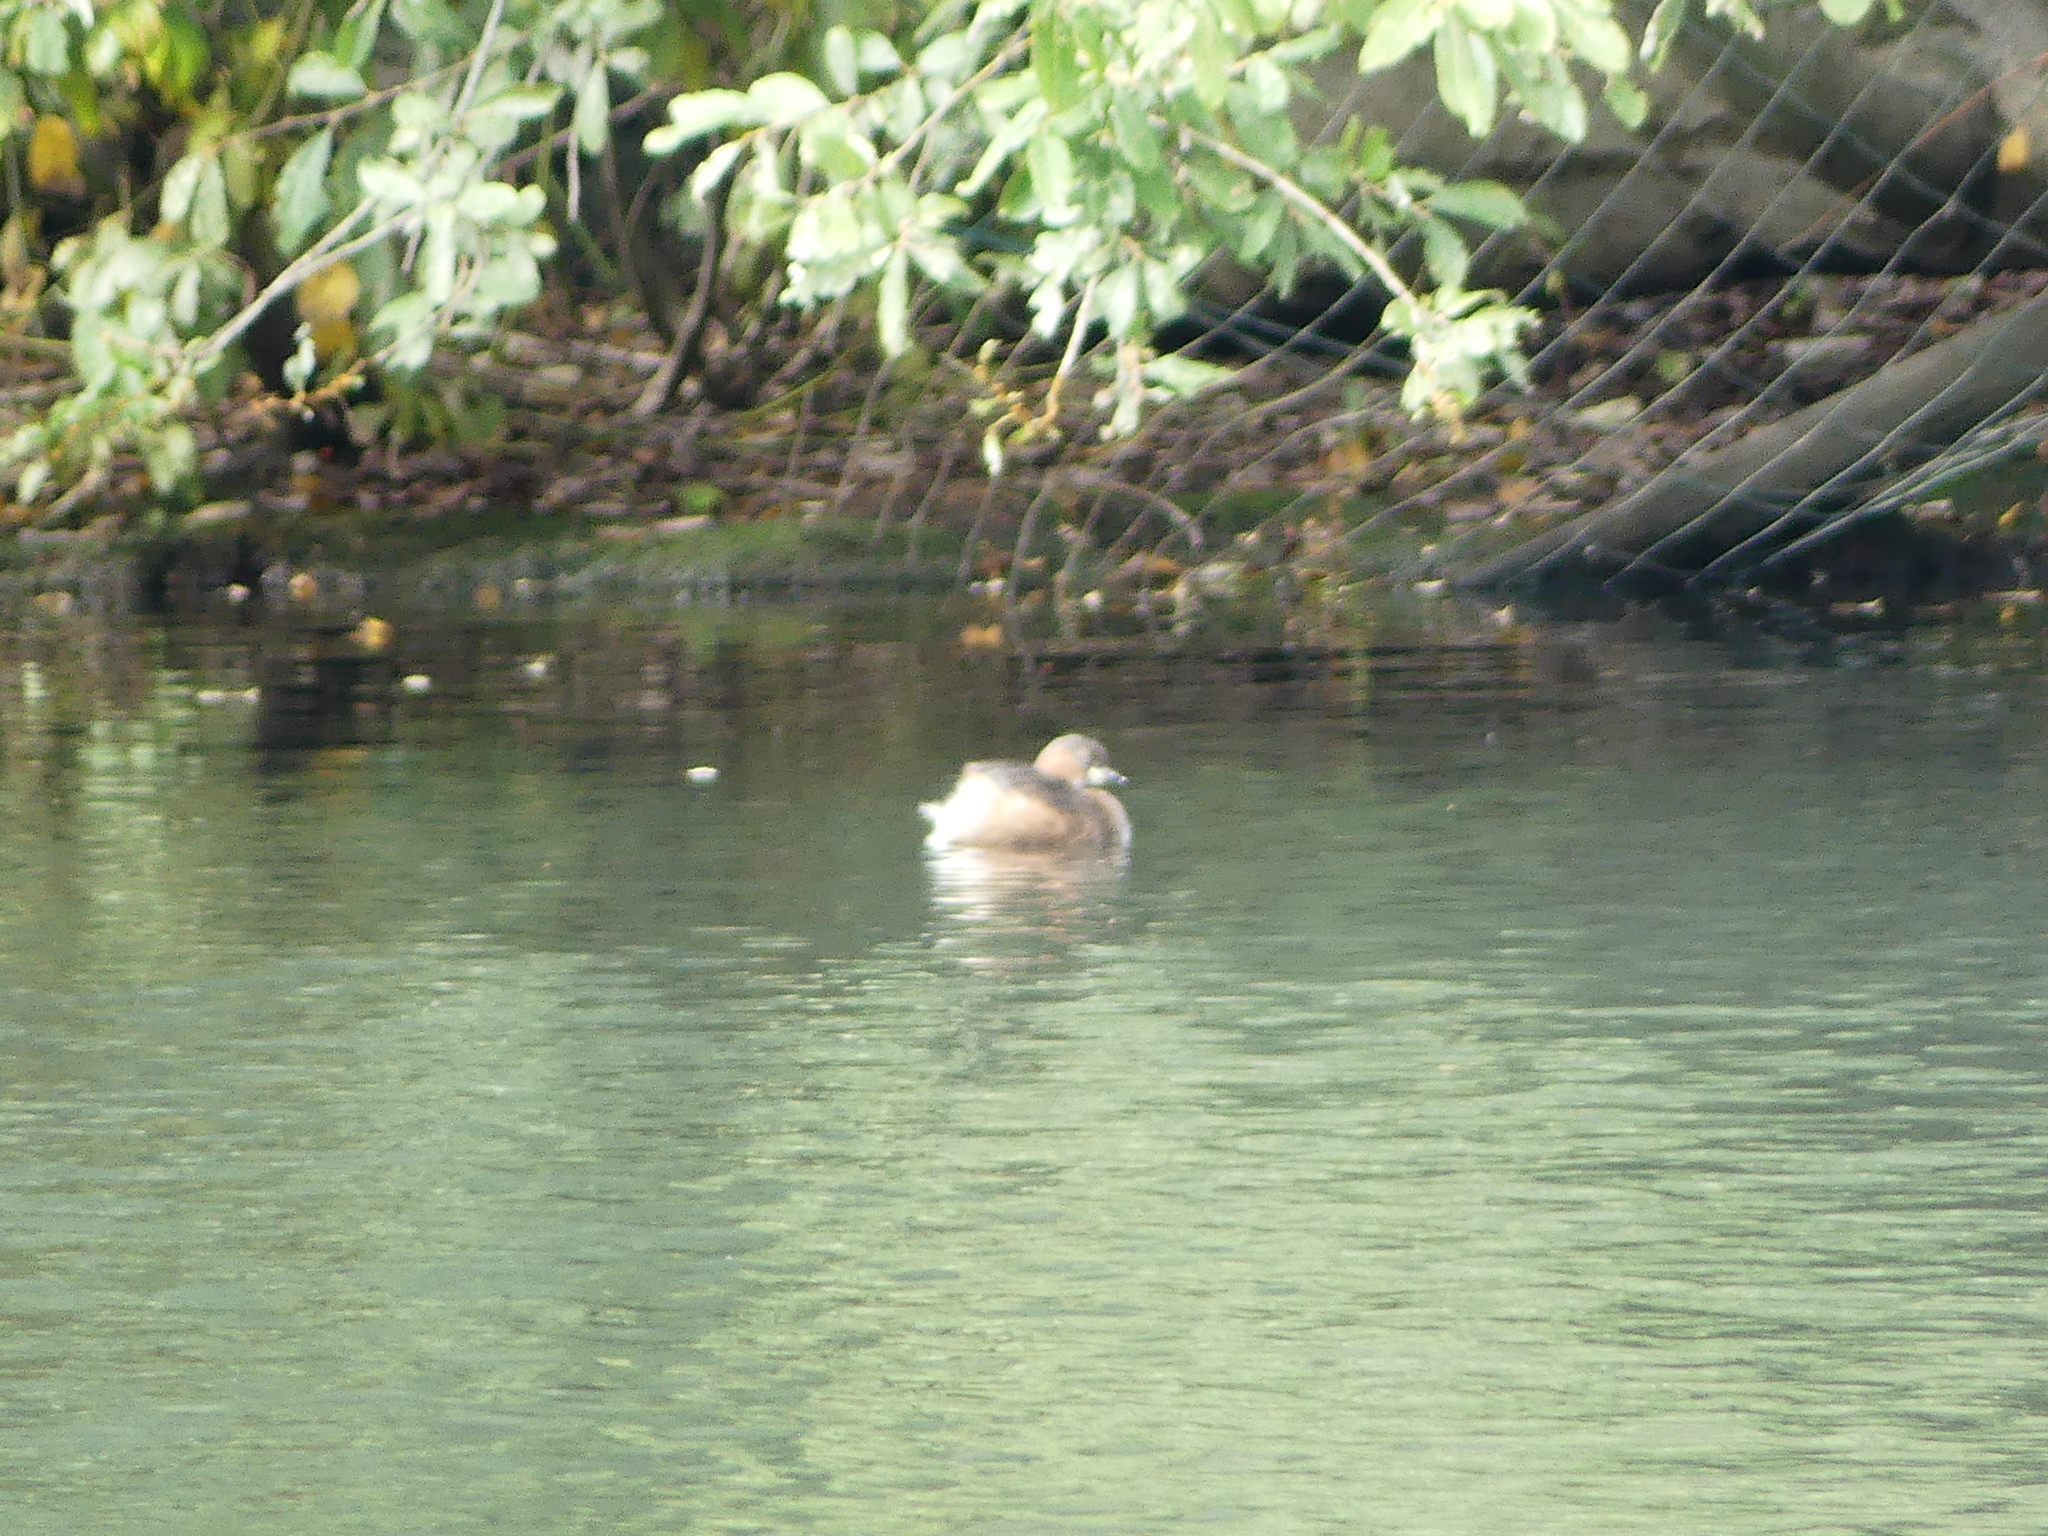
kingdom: Animalia
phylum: Chordata
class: Aves
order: Podicipediformes
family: Podicipedidae
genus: Tachybaptus
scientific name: Tachybaptus ruficollis
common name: Little grebe
